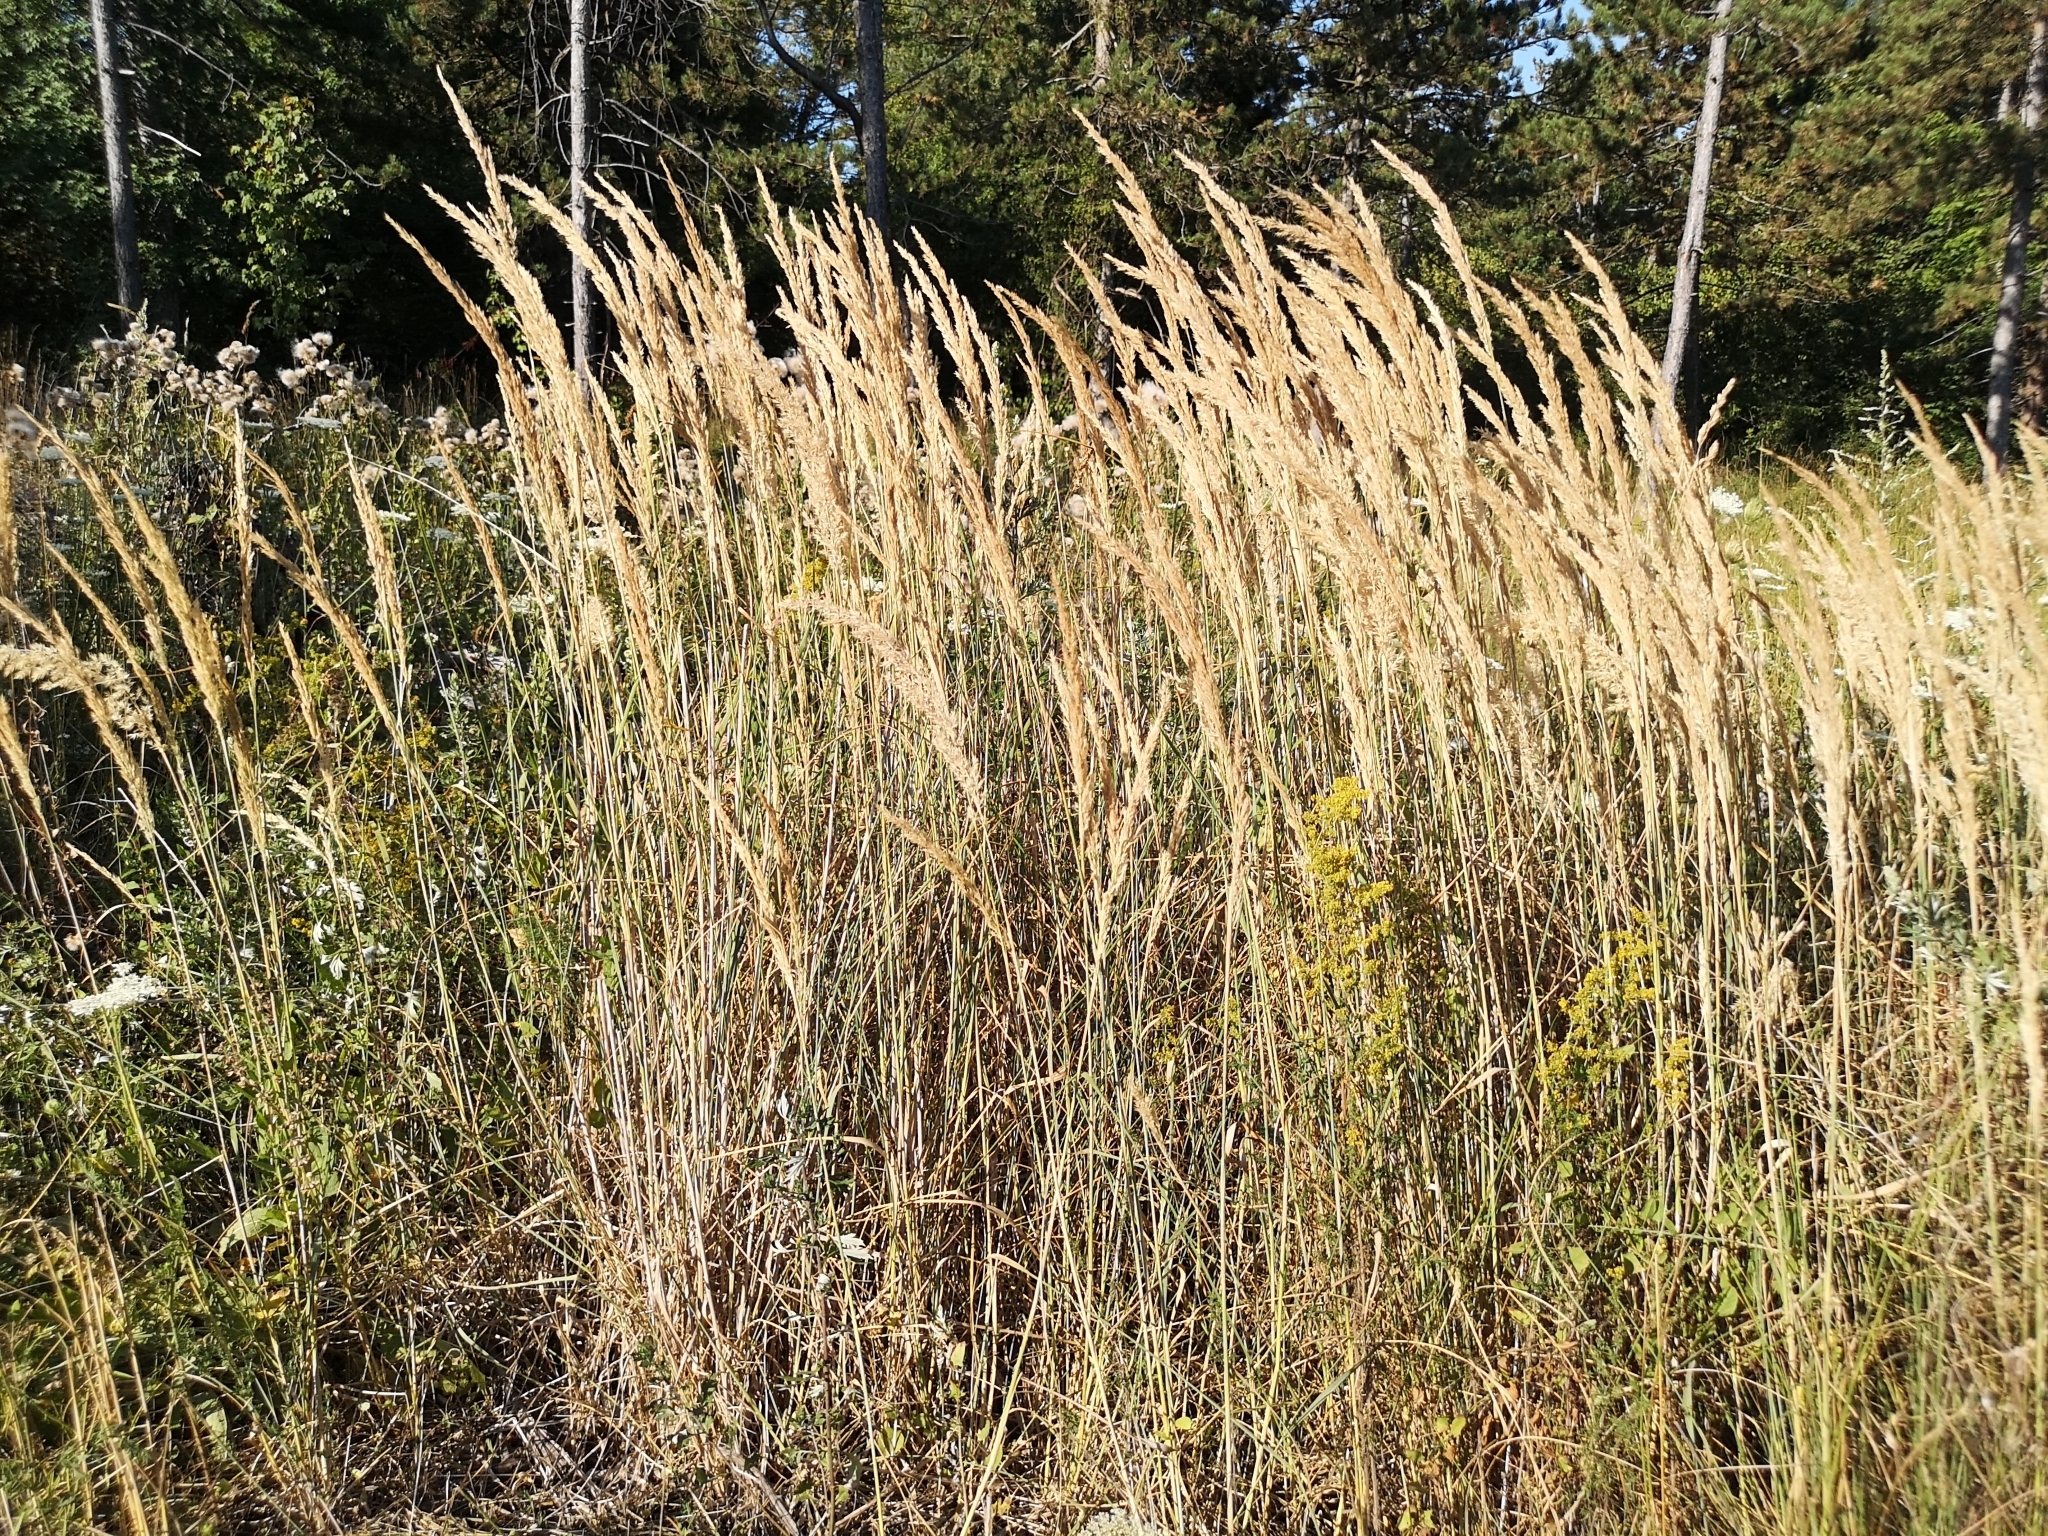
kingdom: Plantae
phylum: Tracheophyta
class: Liliopsida
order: Poales
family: Poaceae
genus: Calamagrostis
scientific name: Calamagrostis epigejos
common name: Wood small-reed
